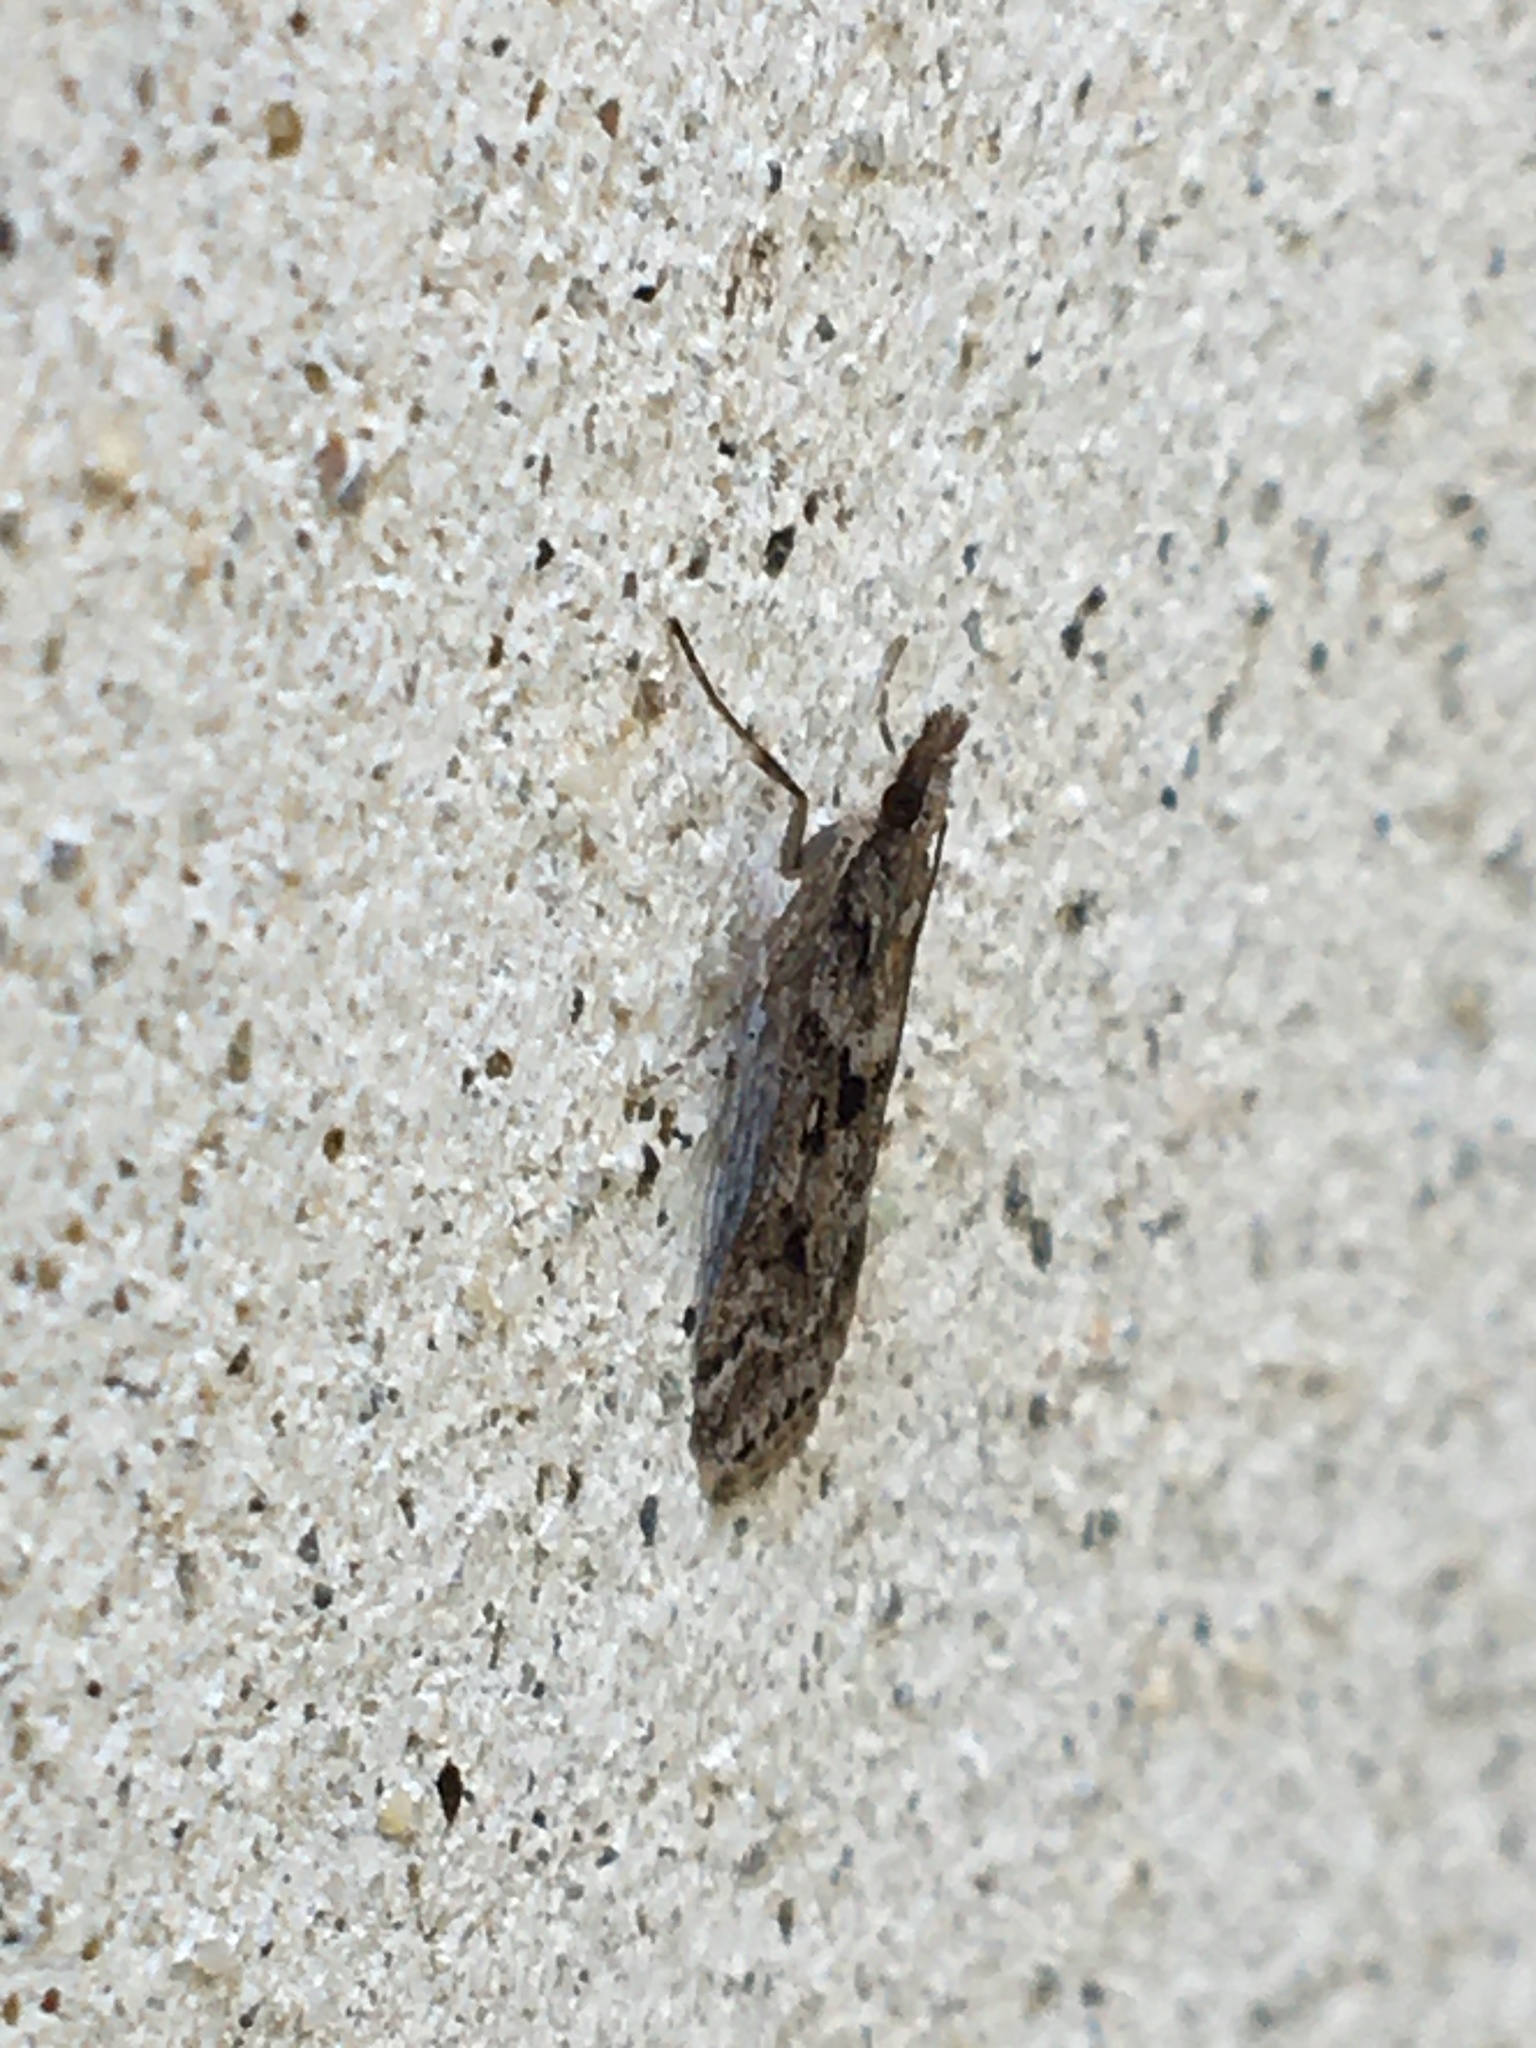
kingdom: Animalia
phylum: Arthropoda
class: Insecta
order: Lepidoptera
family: Crambidae
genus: Eudonia
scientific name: Eudonia angustea
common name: Narrow-winged grey
